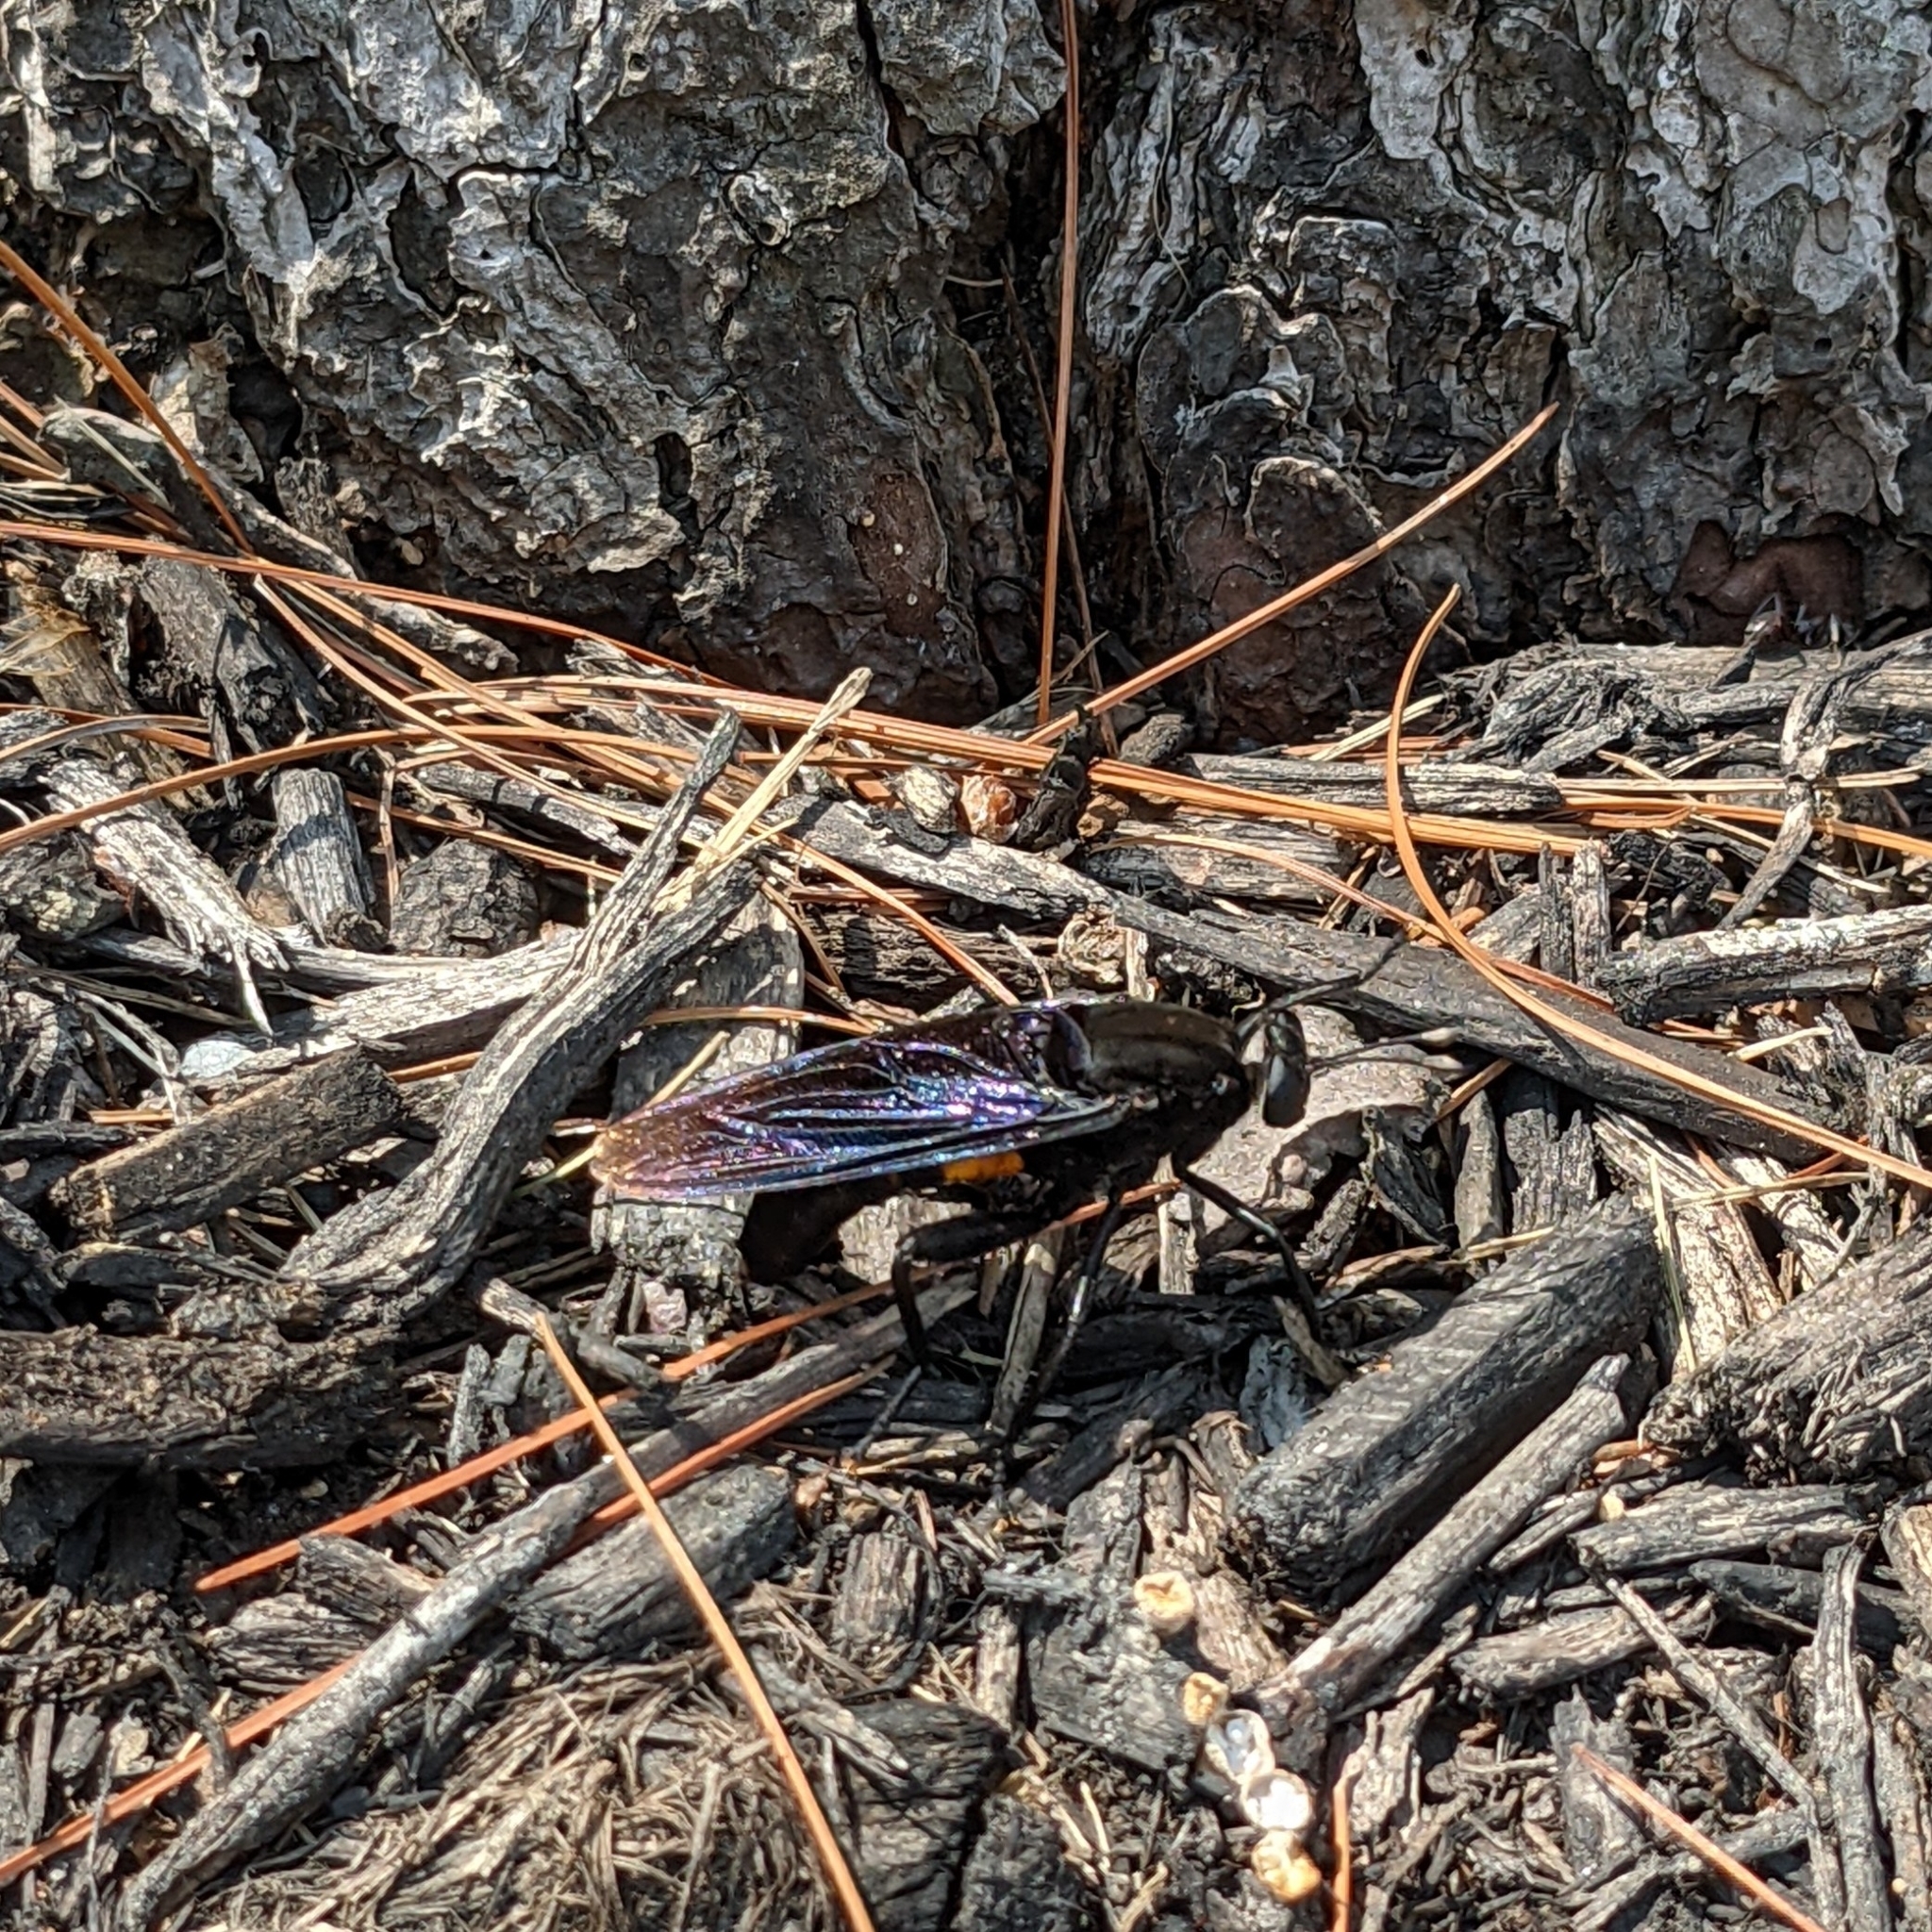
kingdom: Animalia
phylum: Arthropoda
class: Insecta
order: Diptera
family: Mydidae
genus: Mydas
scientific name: Mydas clavatus
